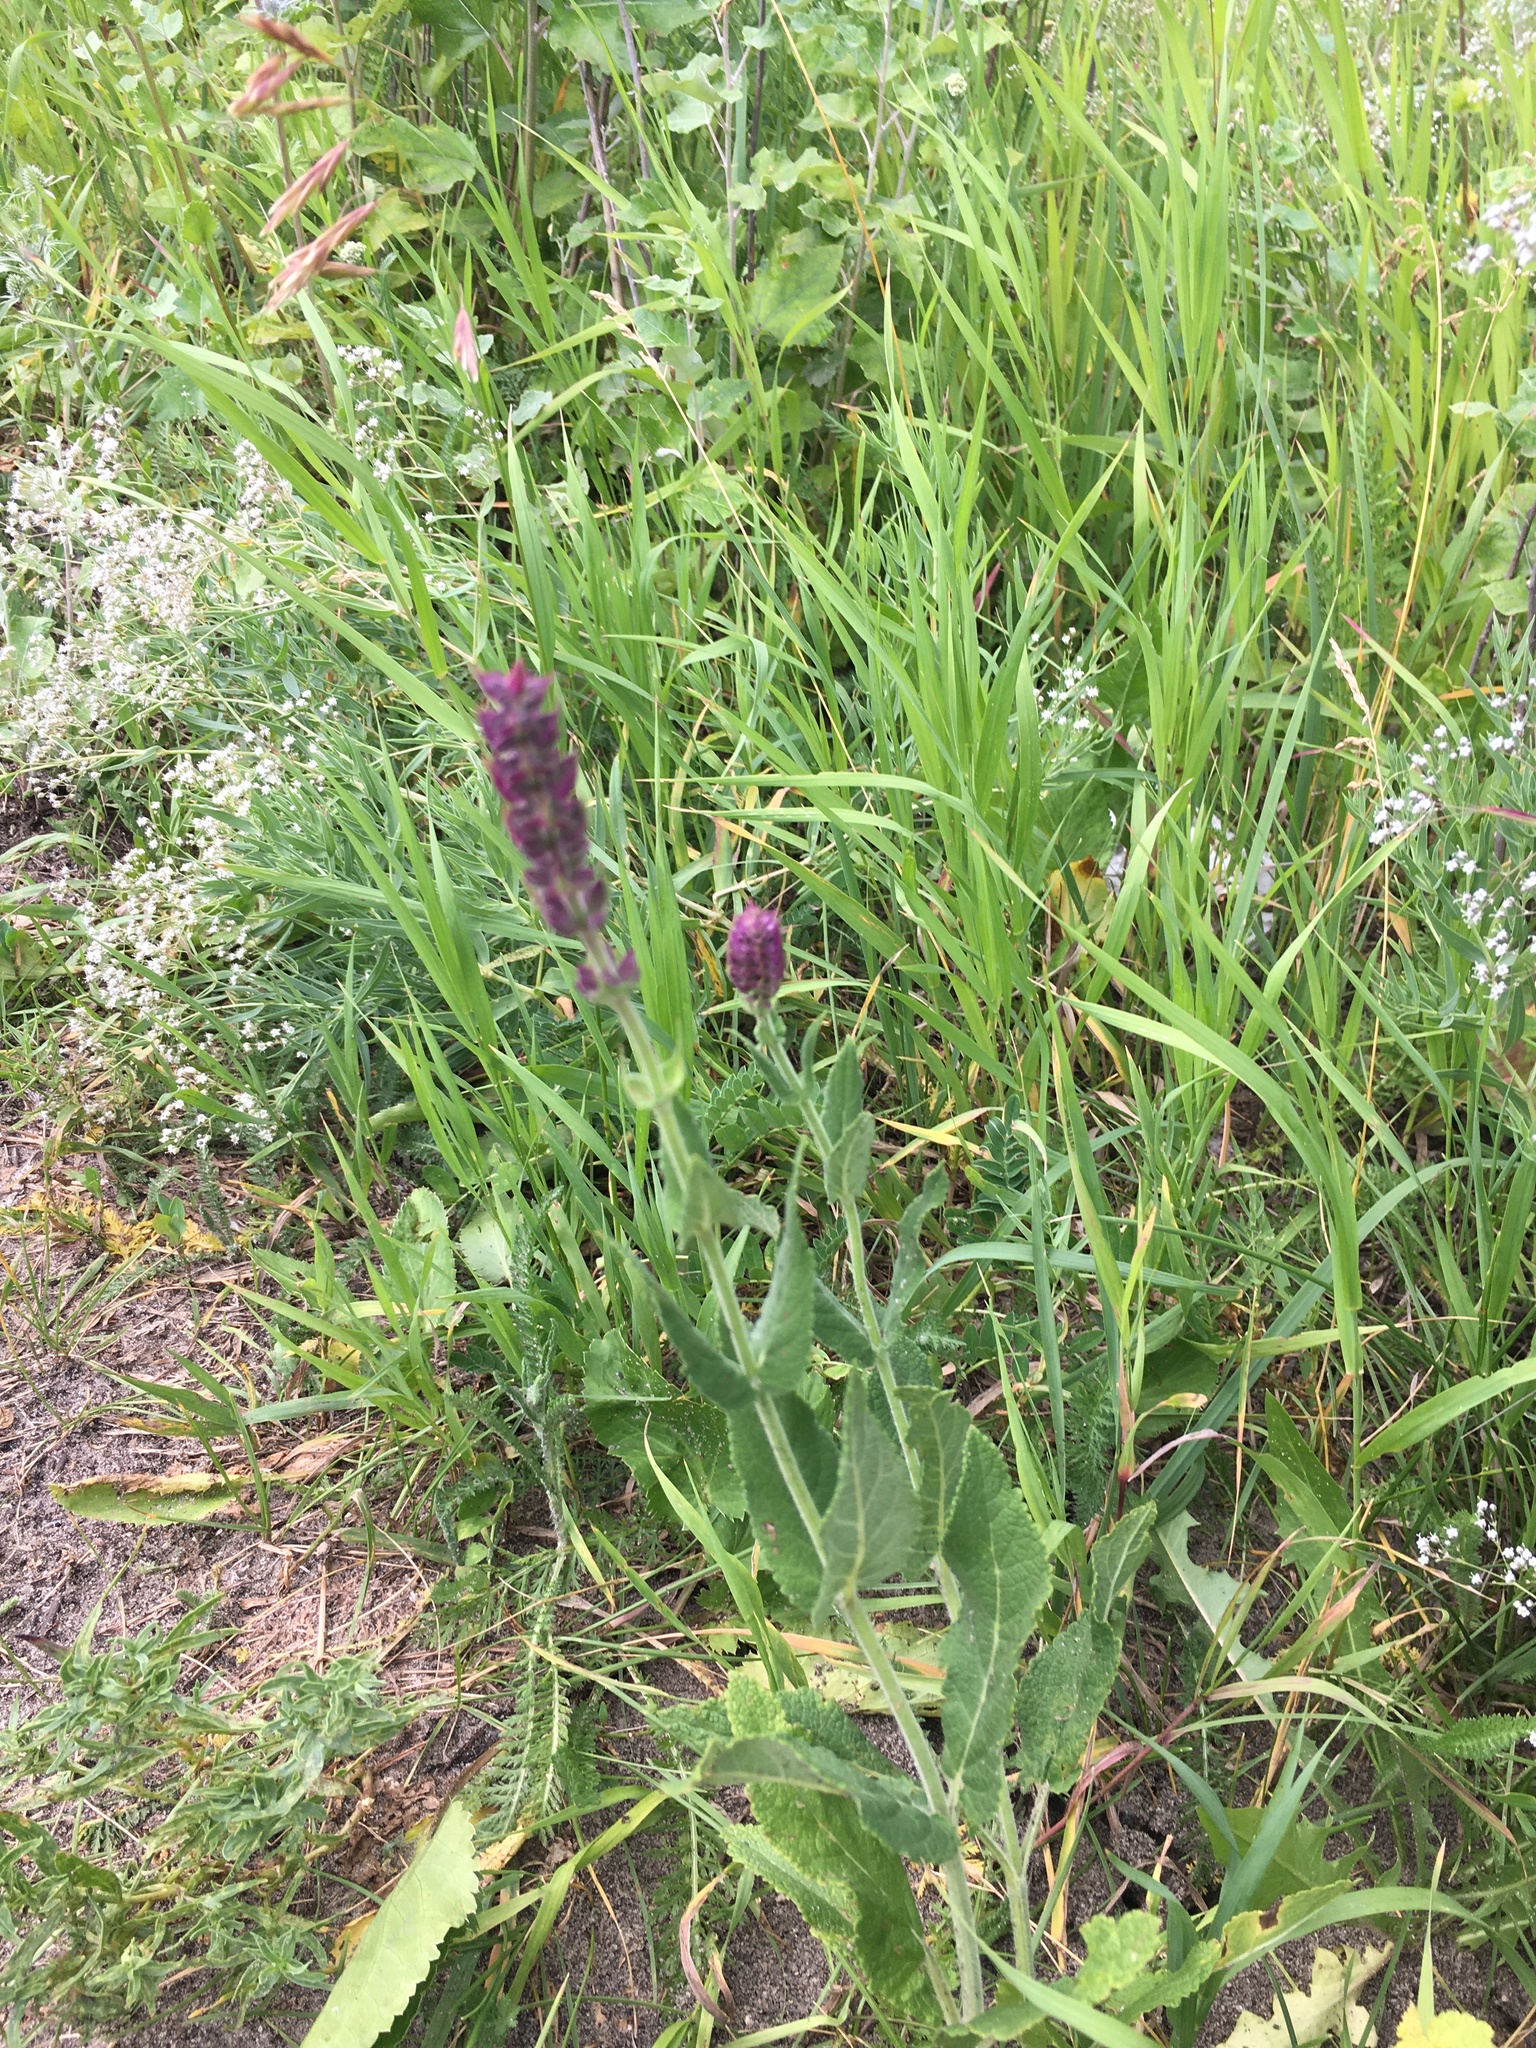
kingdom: Plantae
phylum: Tracheophyta
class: Magnoliopsida
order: Lamiales
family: Lamiaceae
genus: Salvia
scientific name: Salvia nemorosa
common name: Balkan clary
